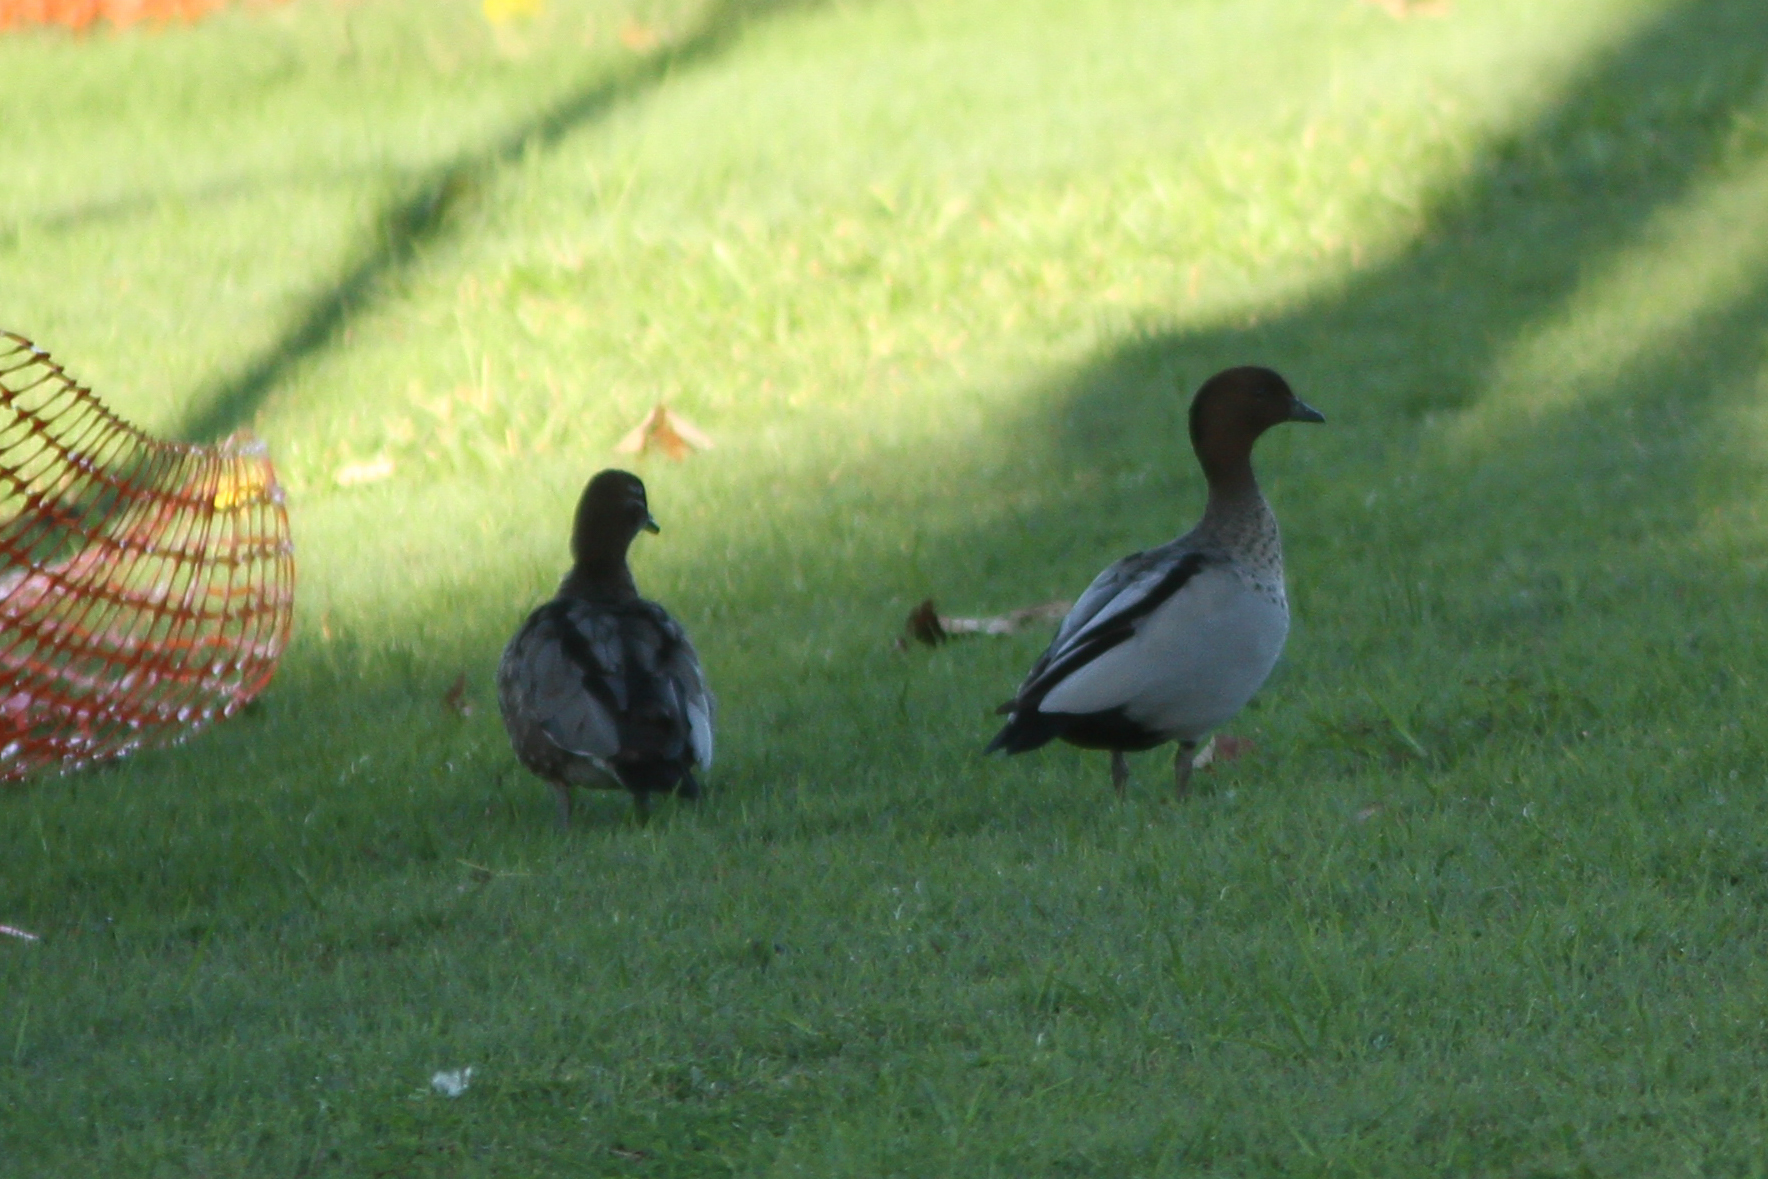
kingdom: Animalia
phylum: Chordata
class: Aves
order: Anseriformes
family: Anatidae
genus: Chenonetta
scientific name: Chenonetta jubata
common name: Maned duck
